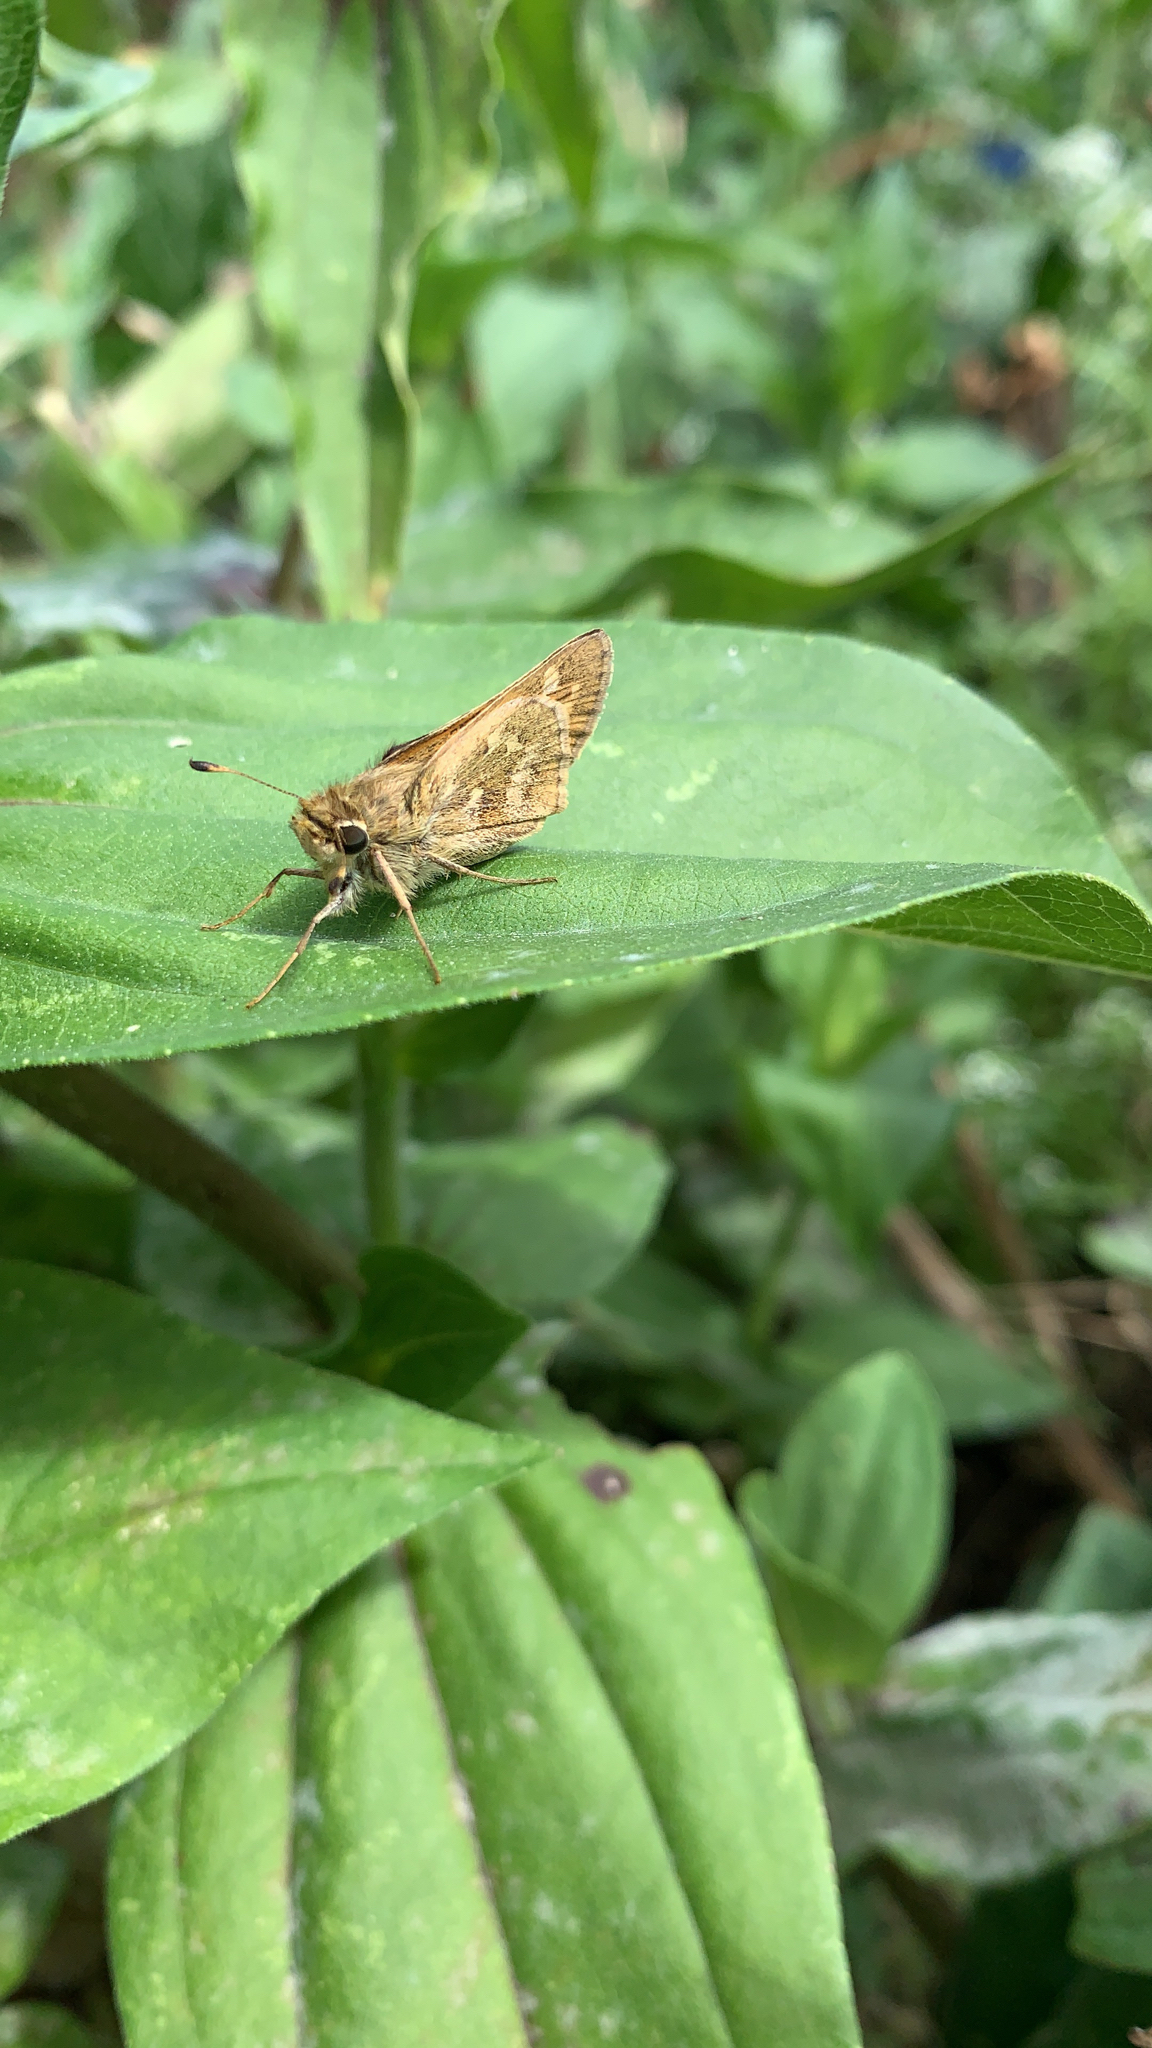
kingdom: Animalia
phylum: Arthropoda
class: Insecta
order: Lepidoptera
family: Hesperiidae
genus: Atalopedes
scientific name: Atalopedes
